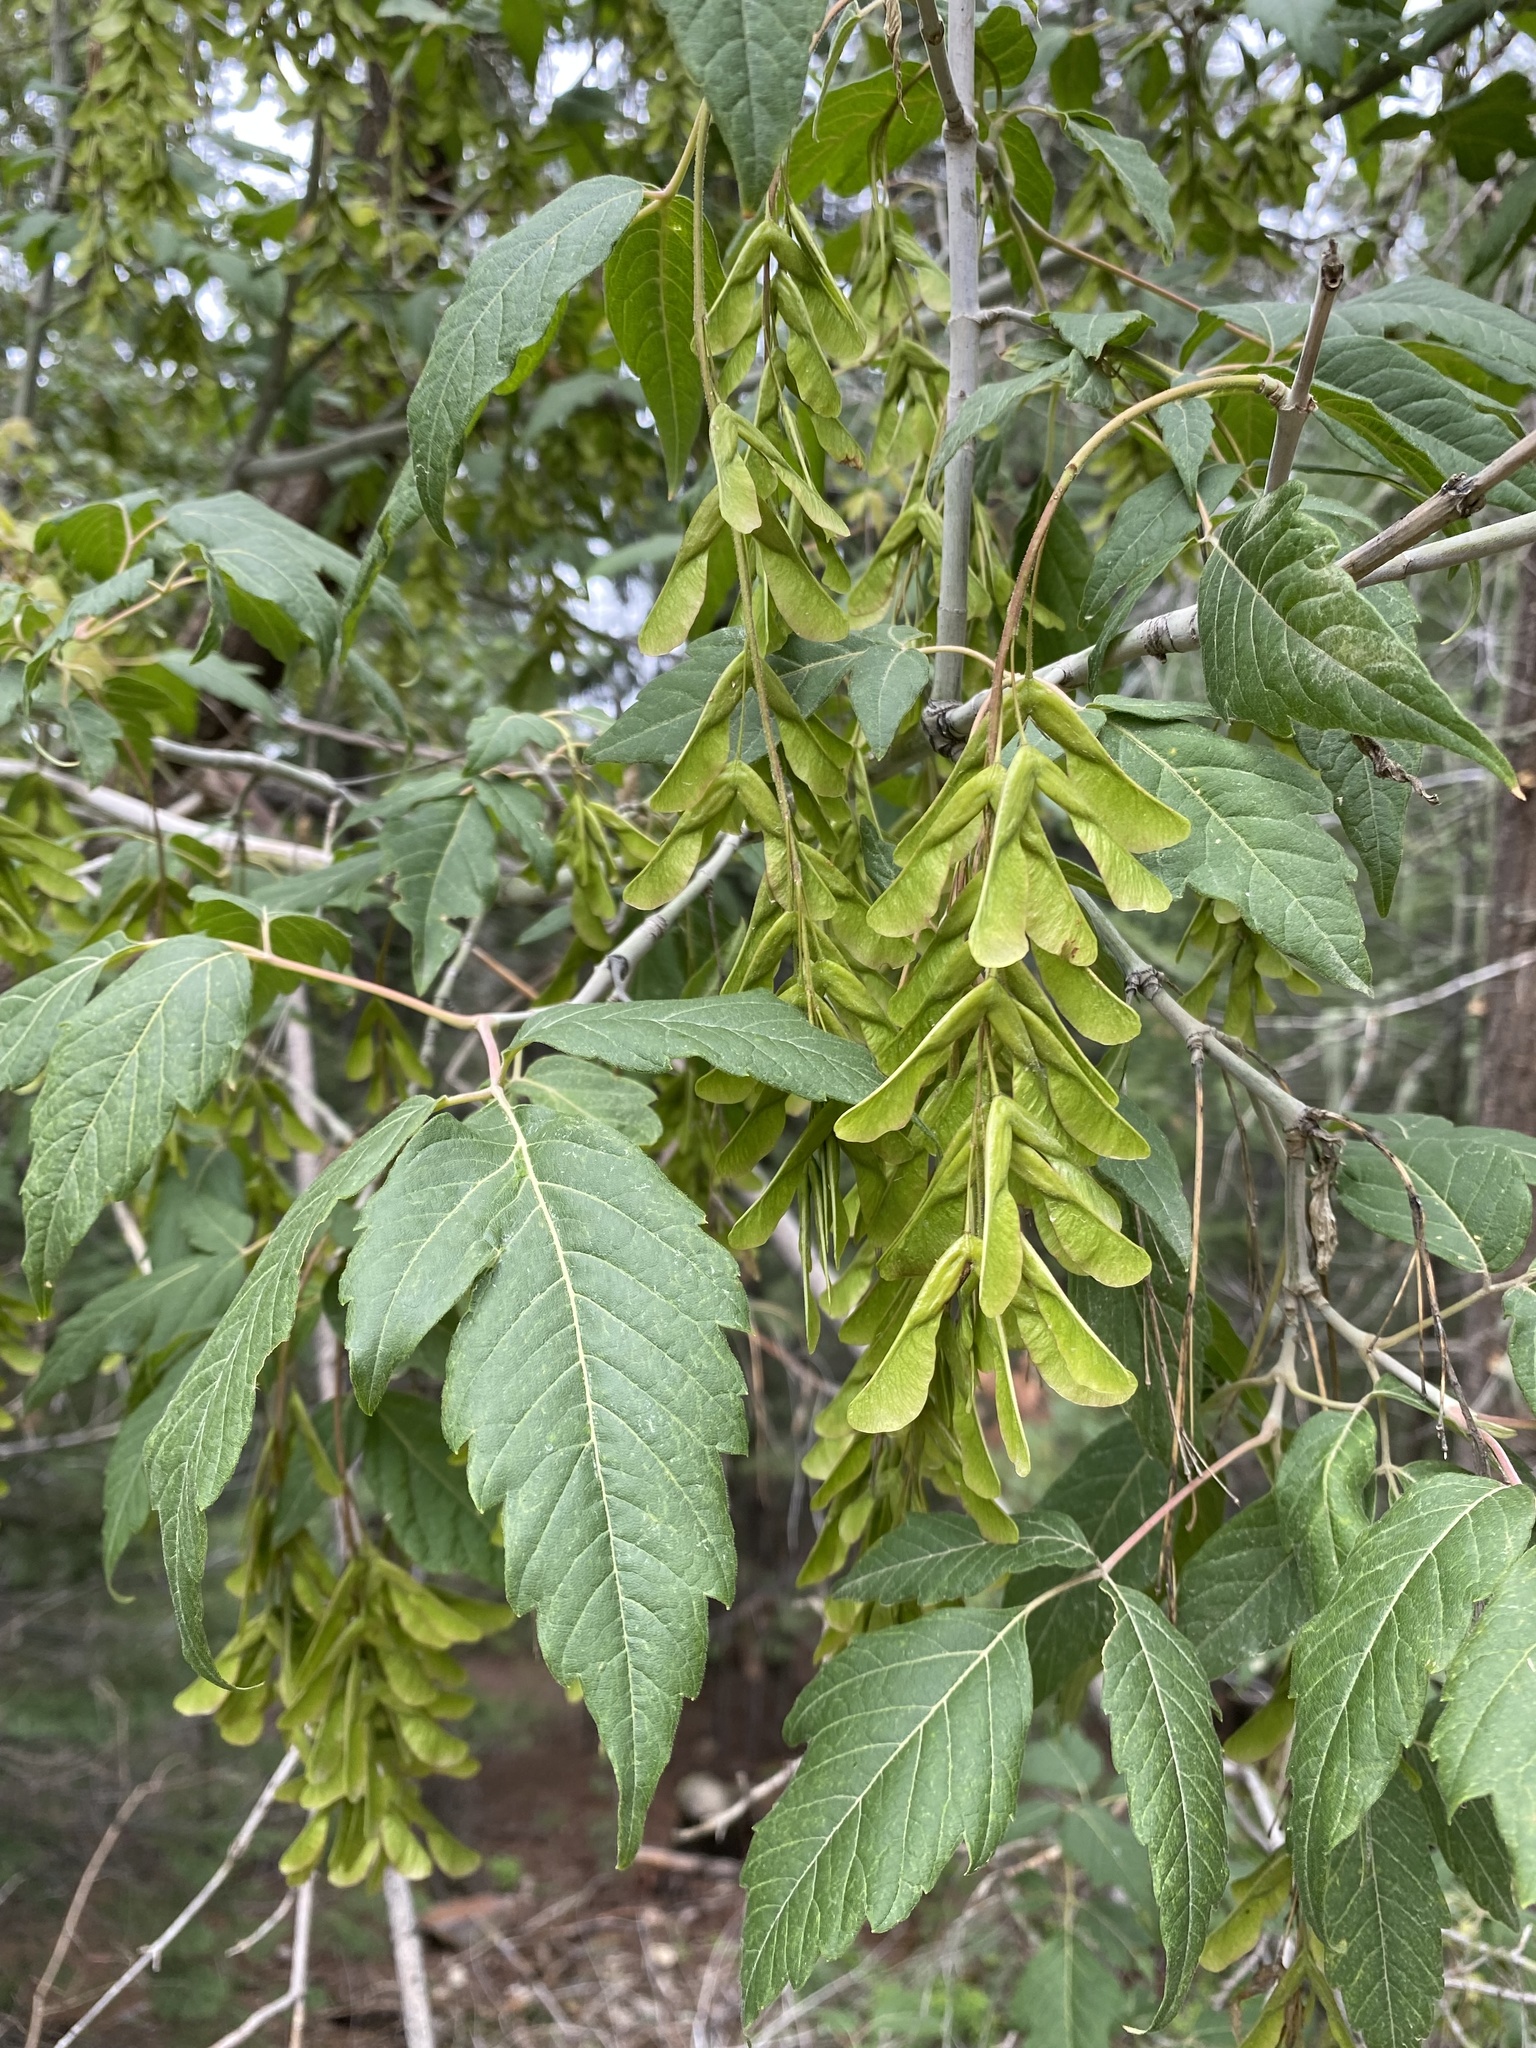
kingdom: Plantae
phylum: Tracheophyta
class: Magnoliopsida
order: Sapindales
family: Sapindaceae
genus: Acer
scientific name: Acer negundo
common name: Ashleaf maple
